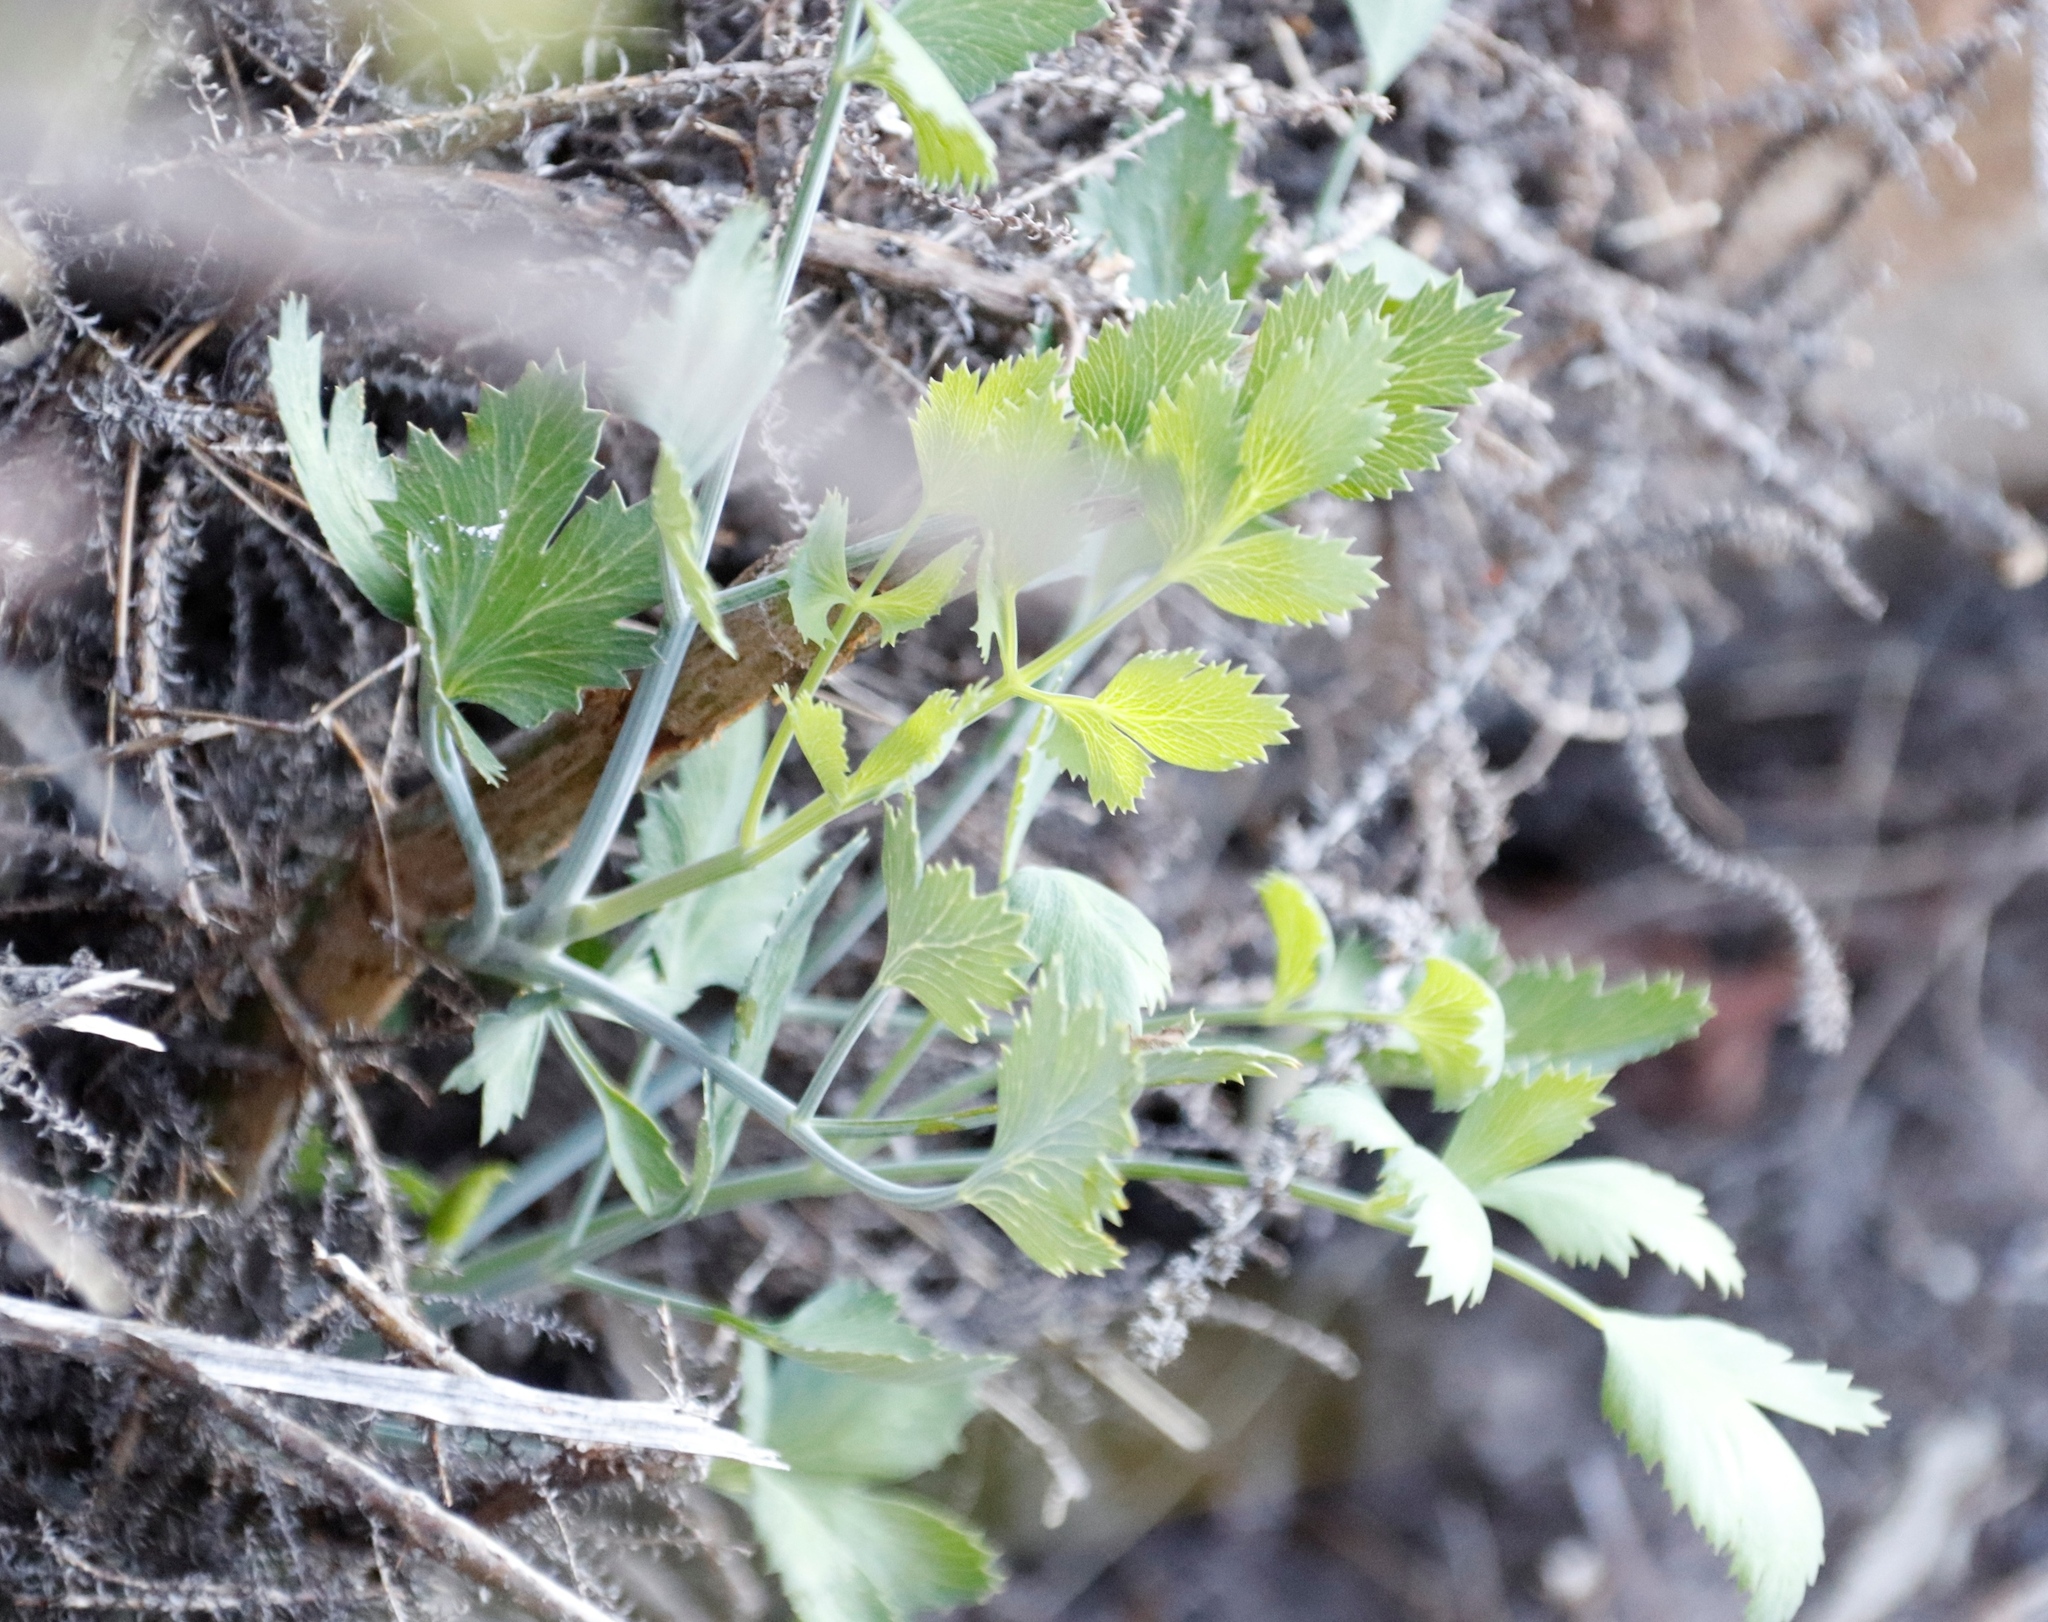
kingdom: Plantae
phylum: Tracheophyta
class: Magnoliopsida
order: Apiales
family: Apiaceae
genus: Notobubon
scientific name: Notobubon galbanum
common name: Blisterbush
